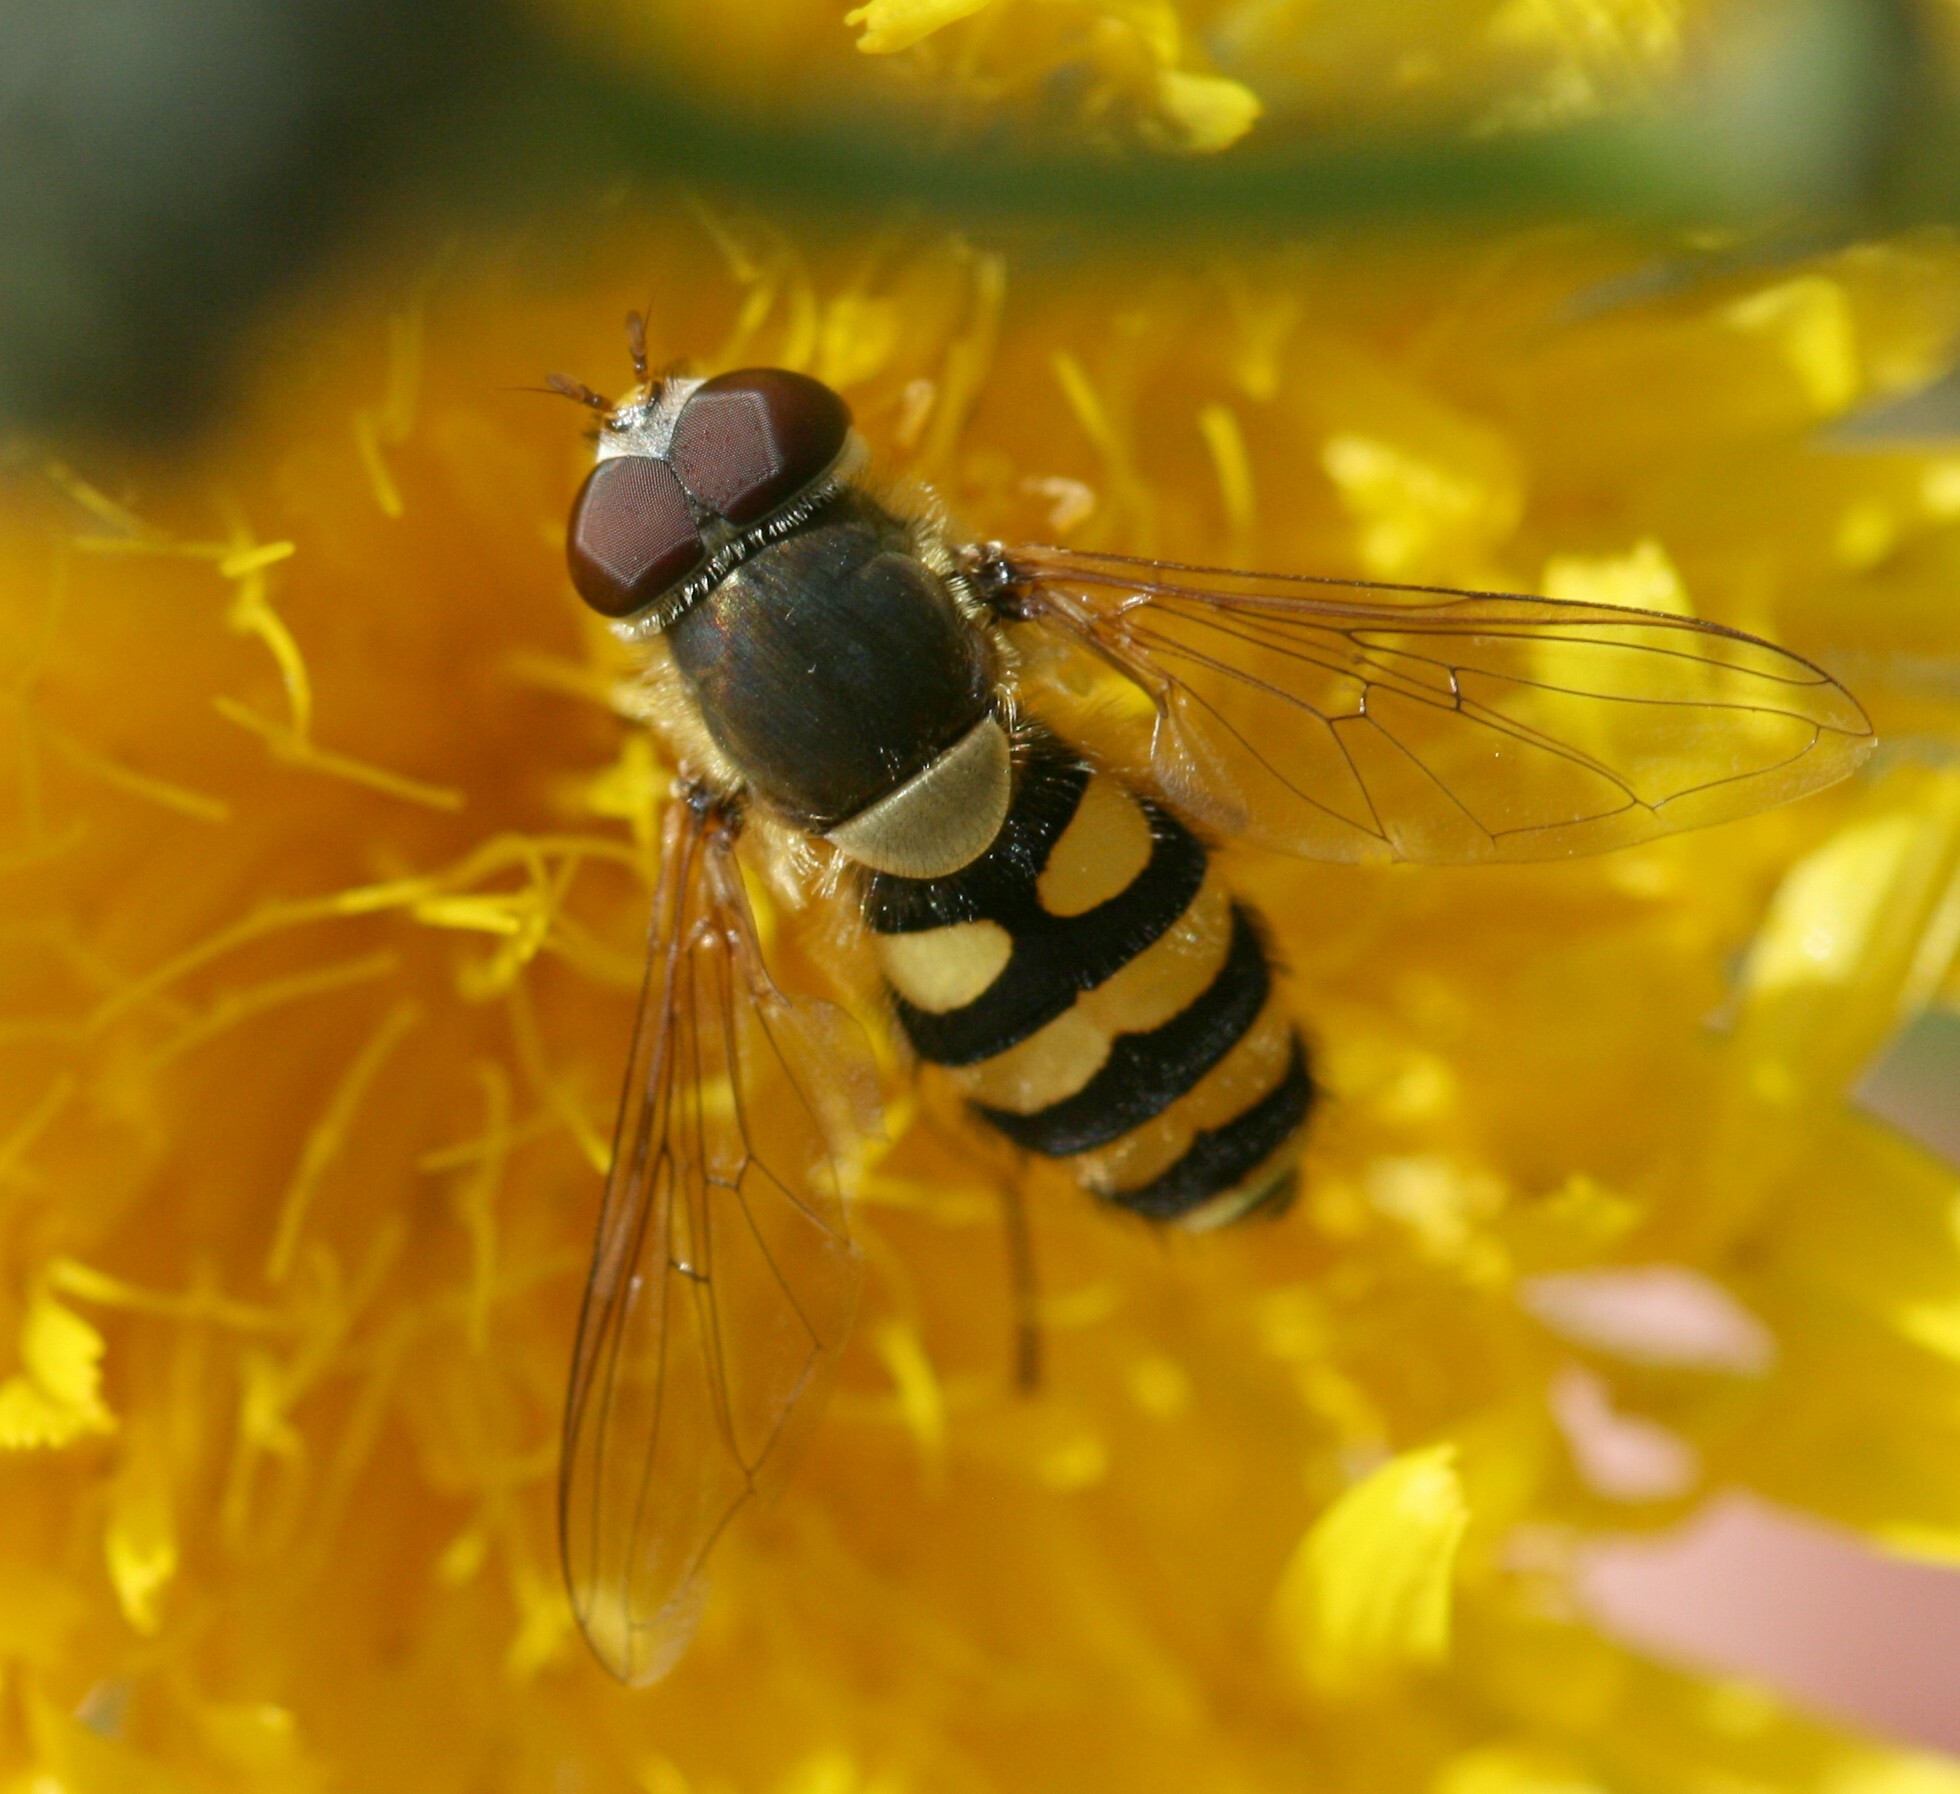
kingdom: Animalia
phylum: Arthropoda
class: Insecta
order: Diptera
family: Syrphidae
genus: Syrphus
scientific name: Syrphus
